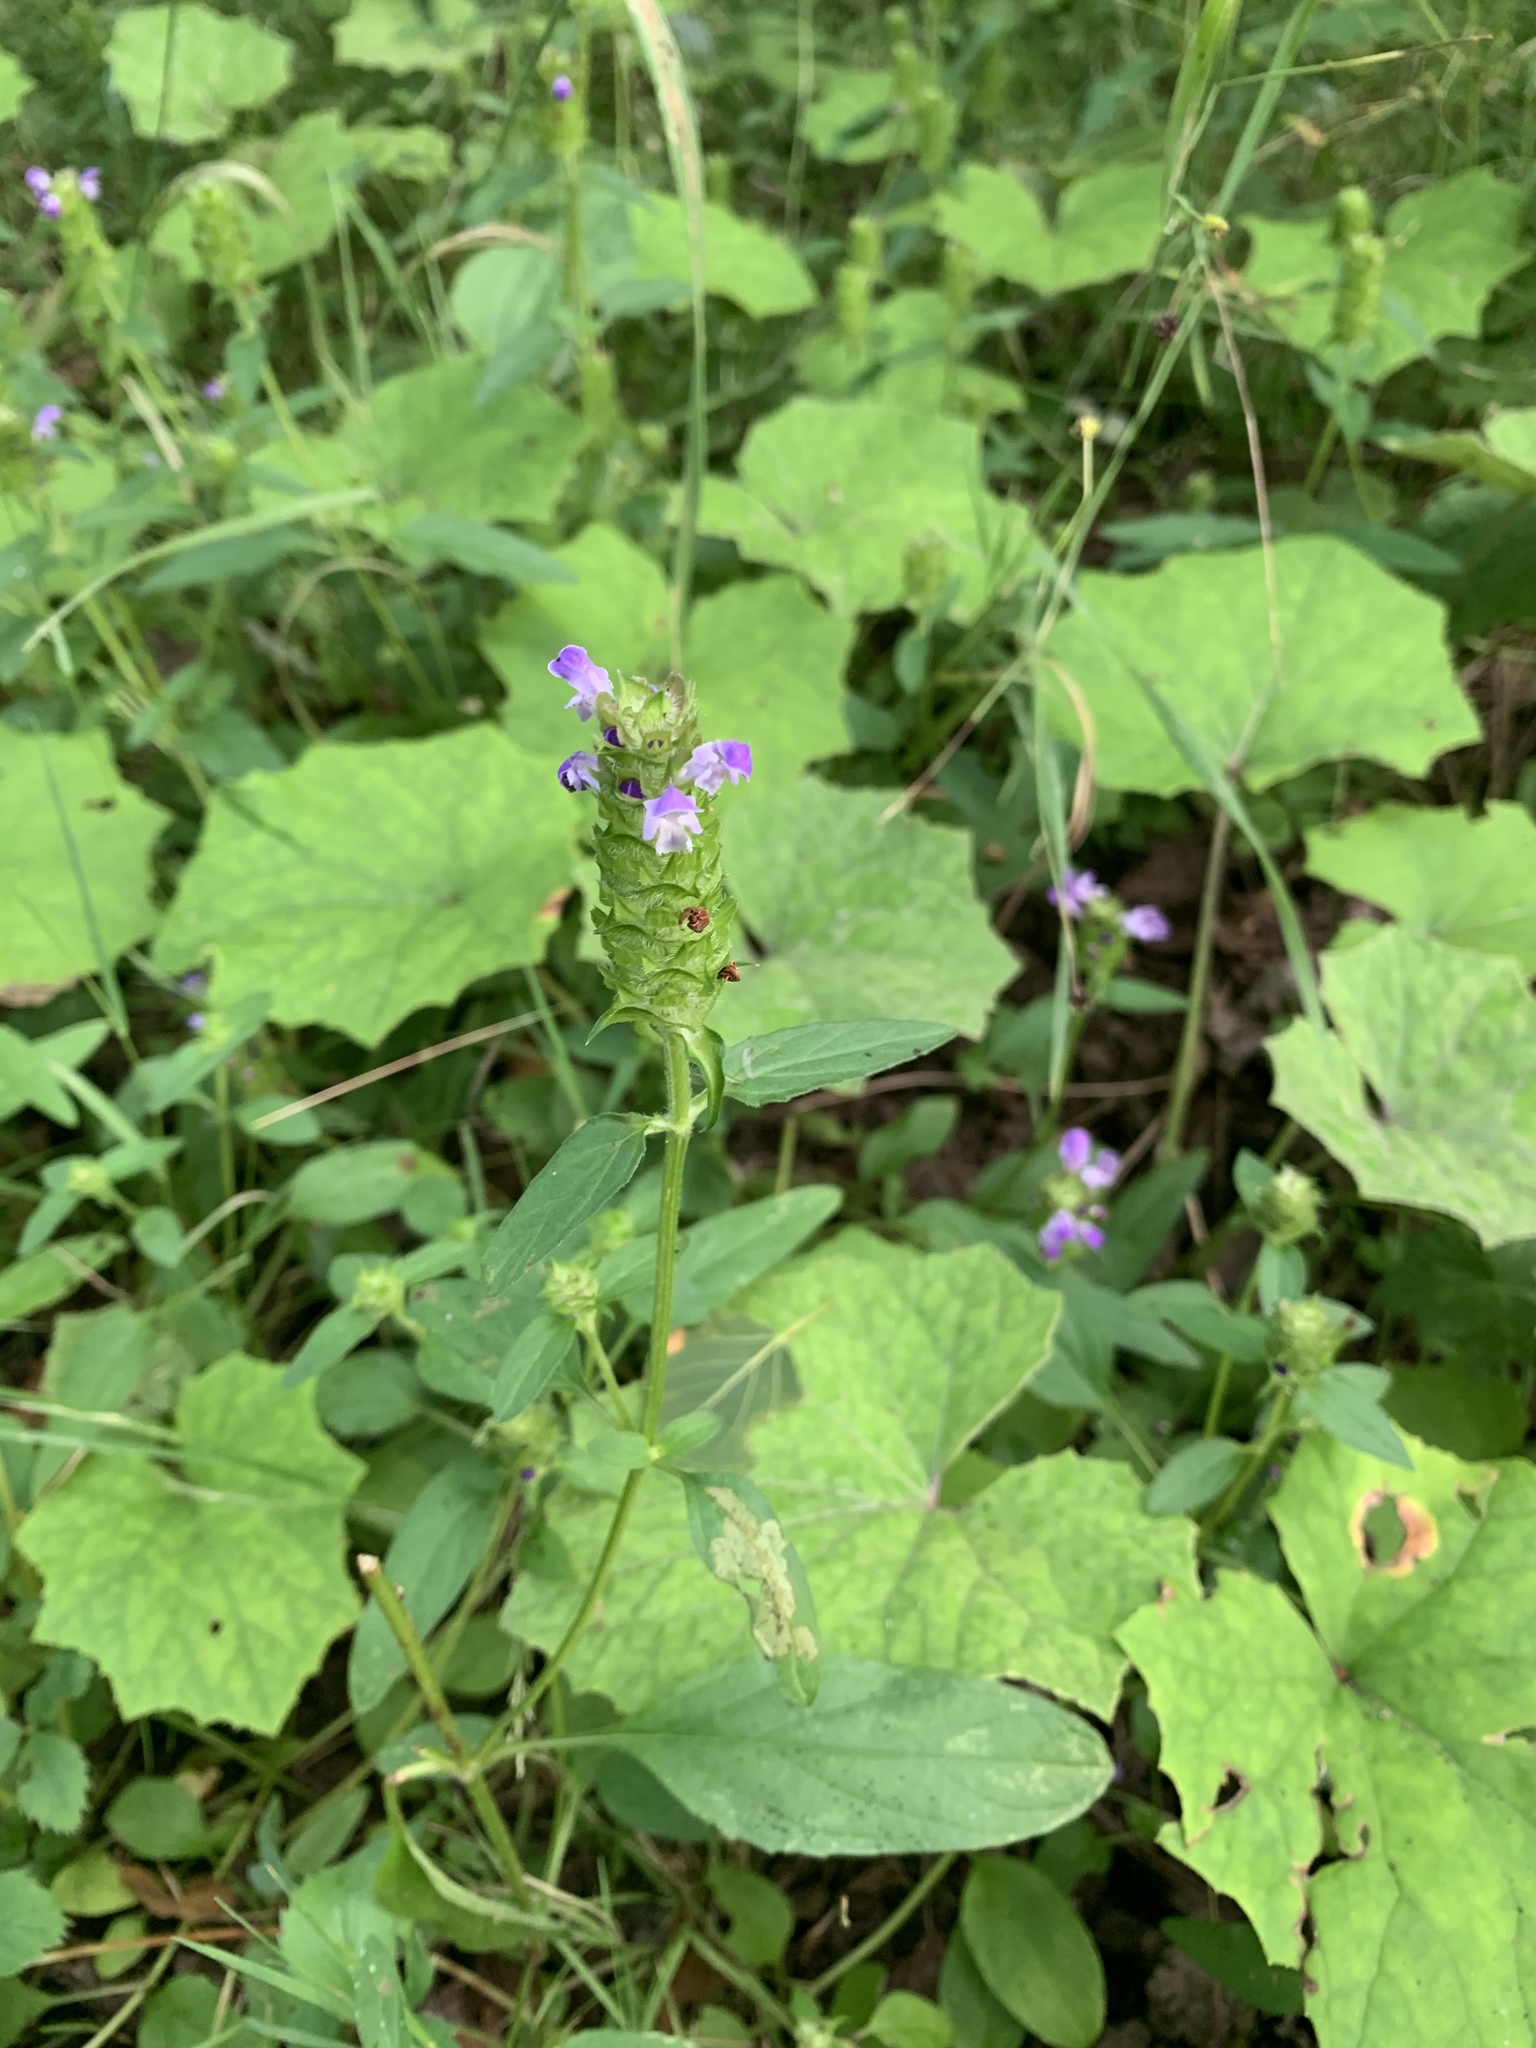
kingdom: Plantae
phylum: Tracheophyta
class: Magnoliopsida
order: Lamiales
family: Lamiaceae
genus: Prunella
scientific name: Prunella vulgaris
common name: Heal-all
